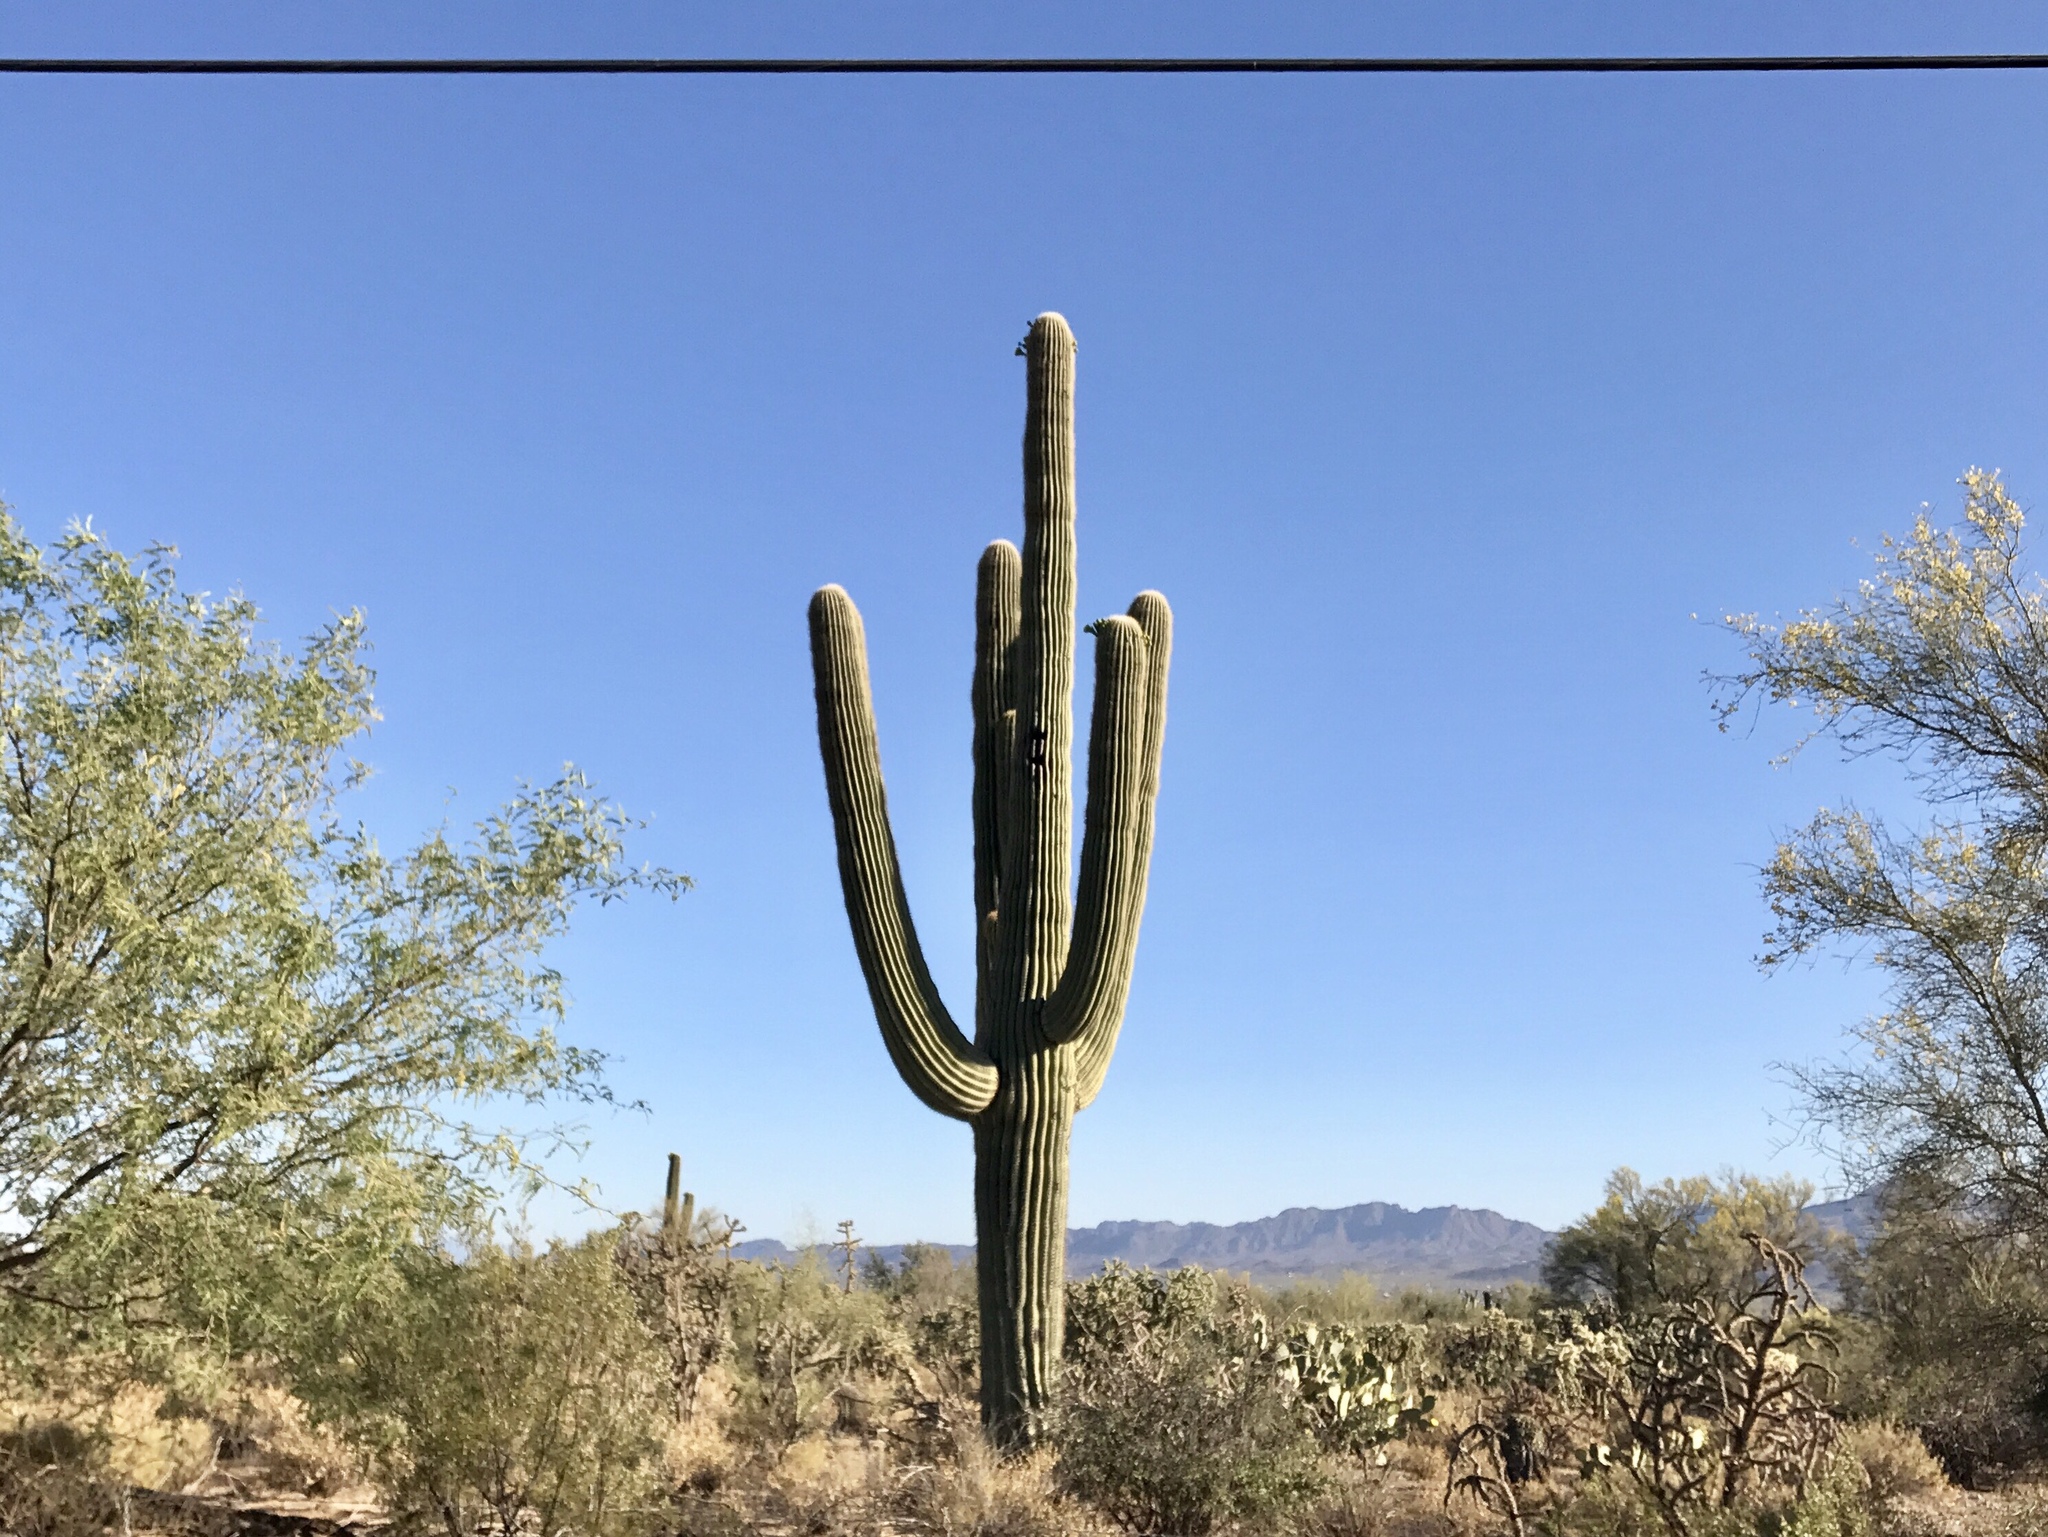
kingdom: Plantae
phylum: Tracheophyta
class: Magnoliopsida
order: Caryophyllales
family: Cactaceae
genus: Carnegiea
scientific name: Carnegiea gigantea
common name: Saguaro
